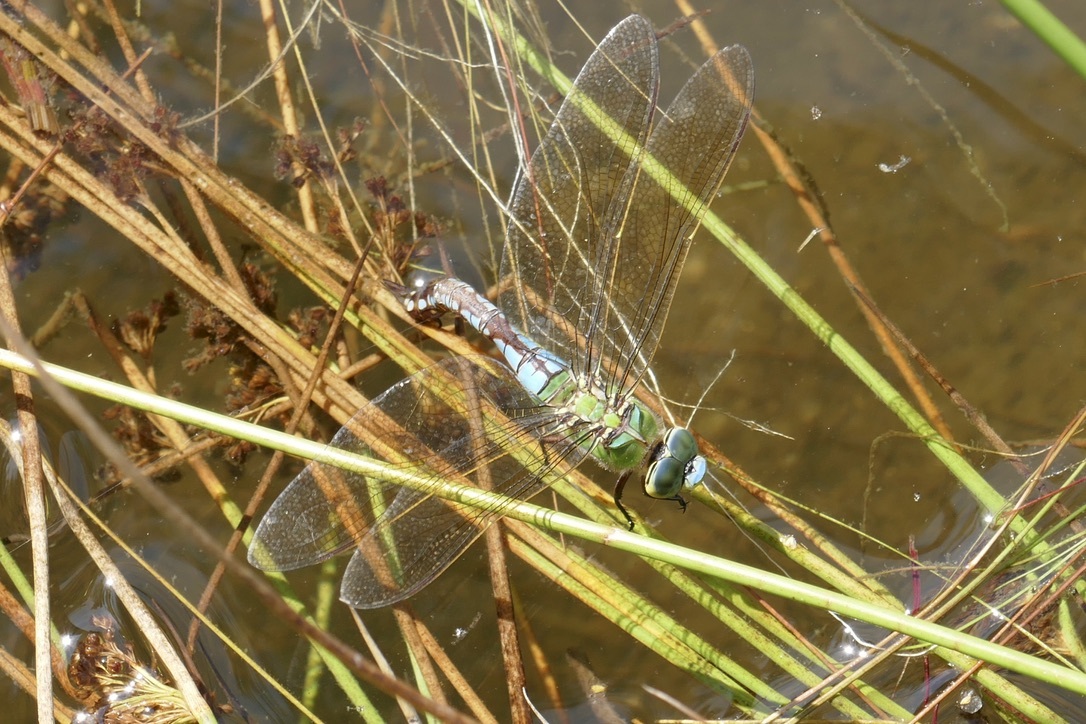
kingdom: Animalia
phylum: Arthropoda
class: Insecta
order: Odonata
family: Aeshnidae
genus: Anax
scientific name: Anax imperator
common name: Emperor dragonfly
